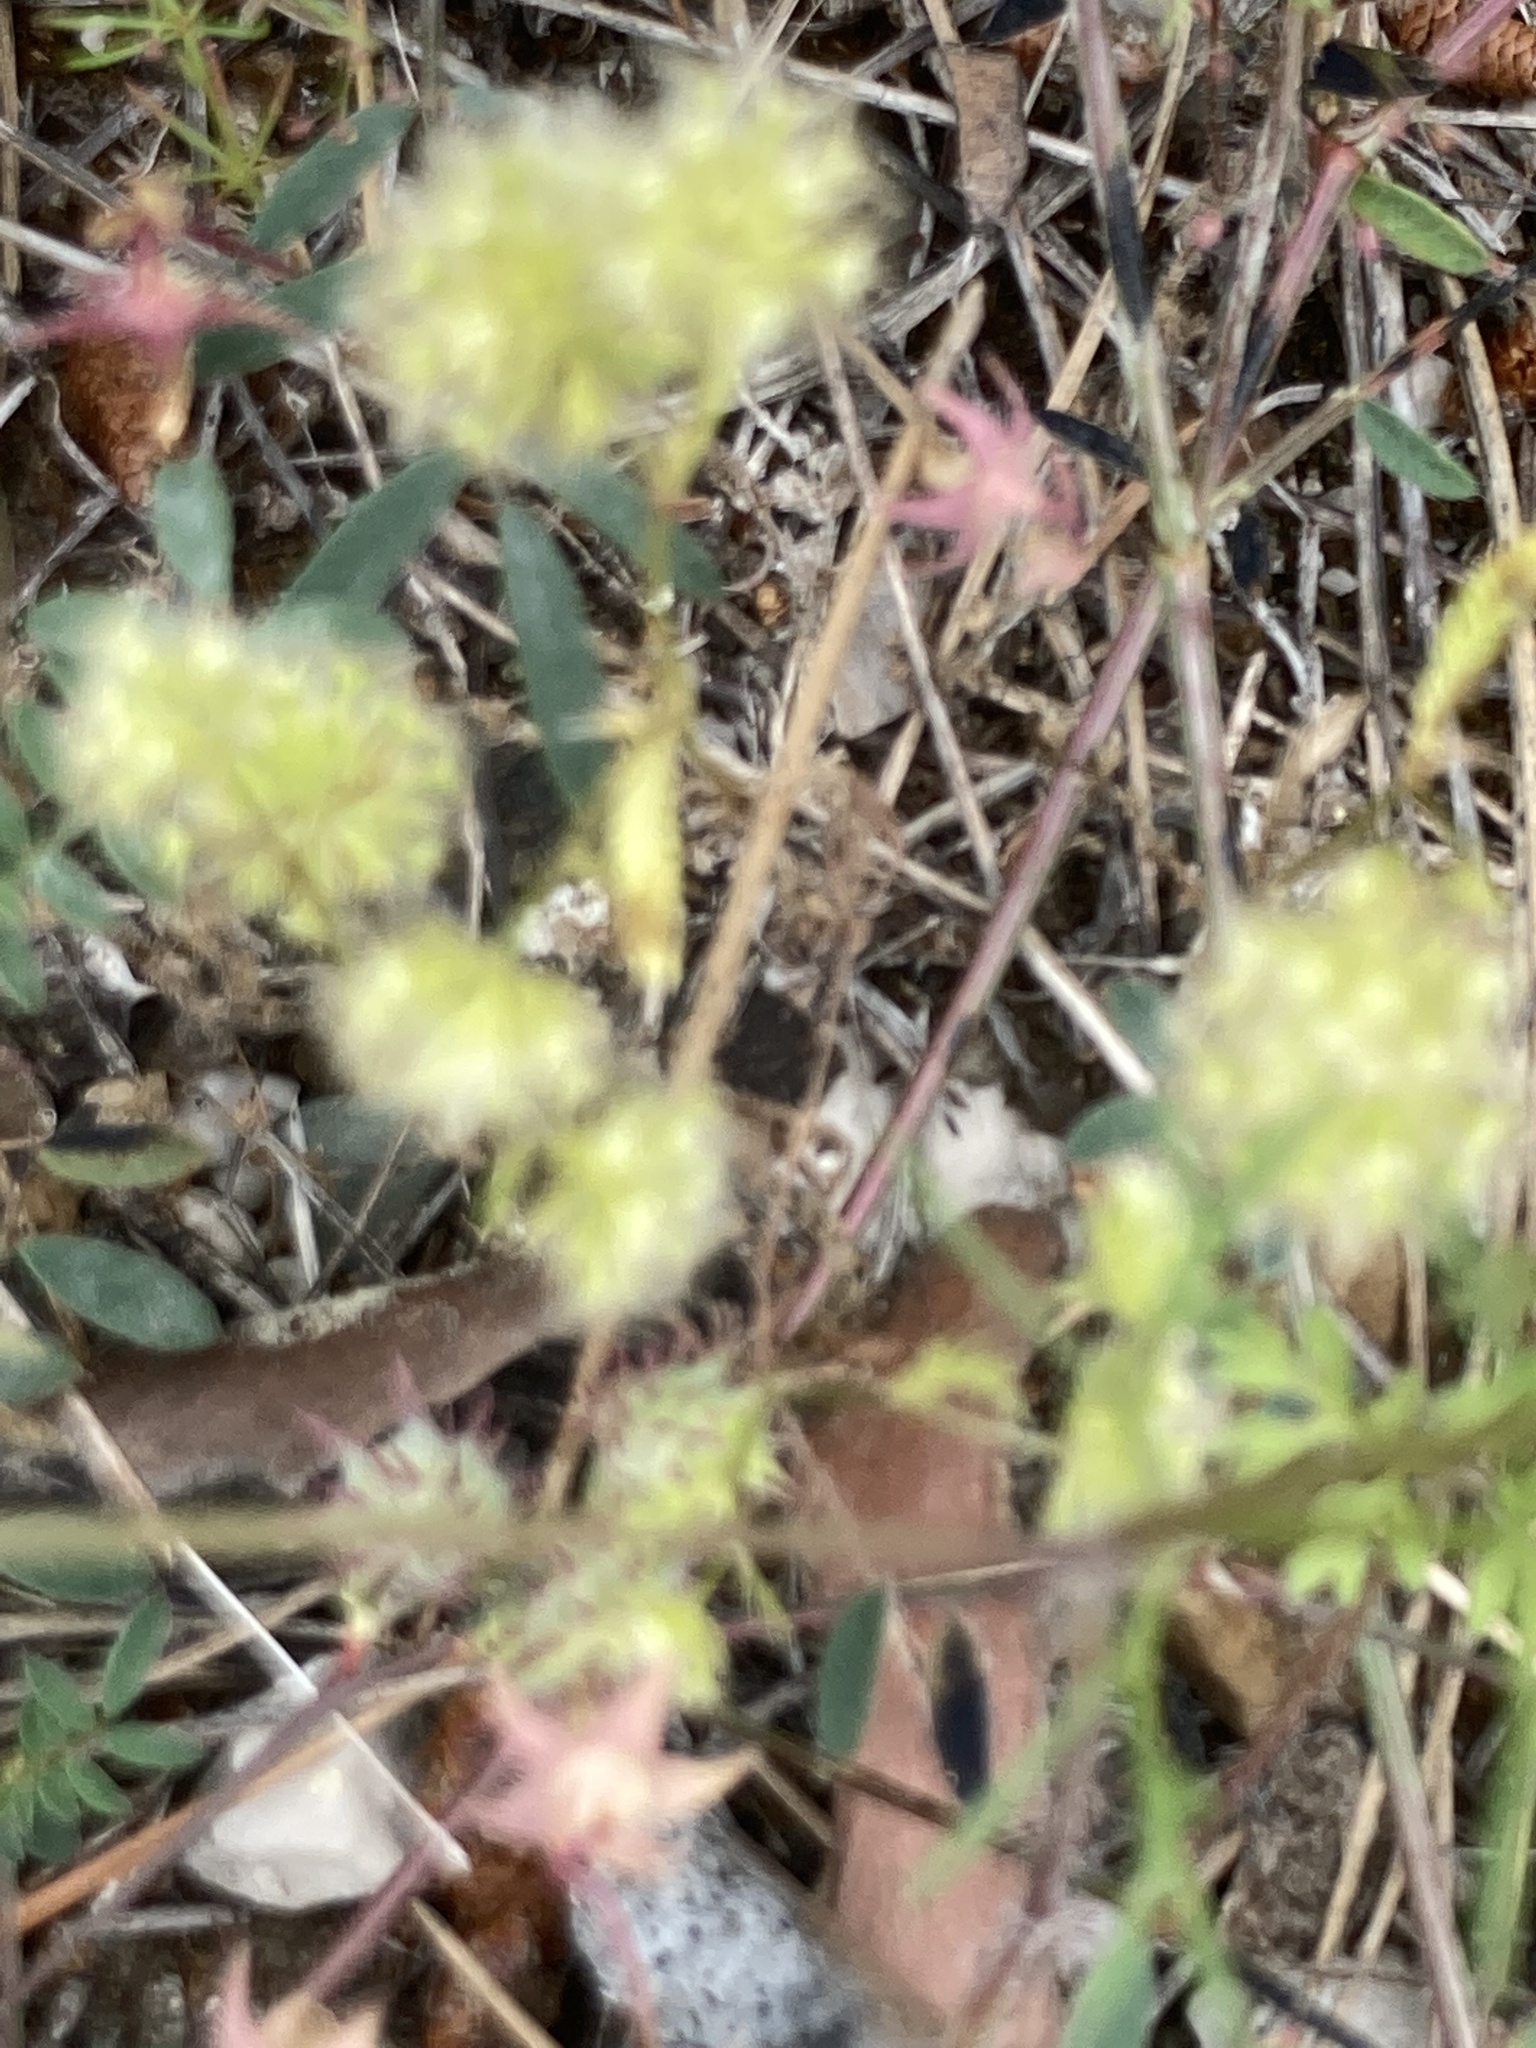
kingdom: Plantae
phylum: Tracheophyta
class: Magnoliopsida
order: Apiales
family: Apiaceae
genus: Lagoecia
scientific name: Lagoecia cuminoides
